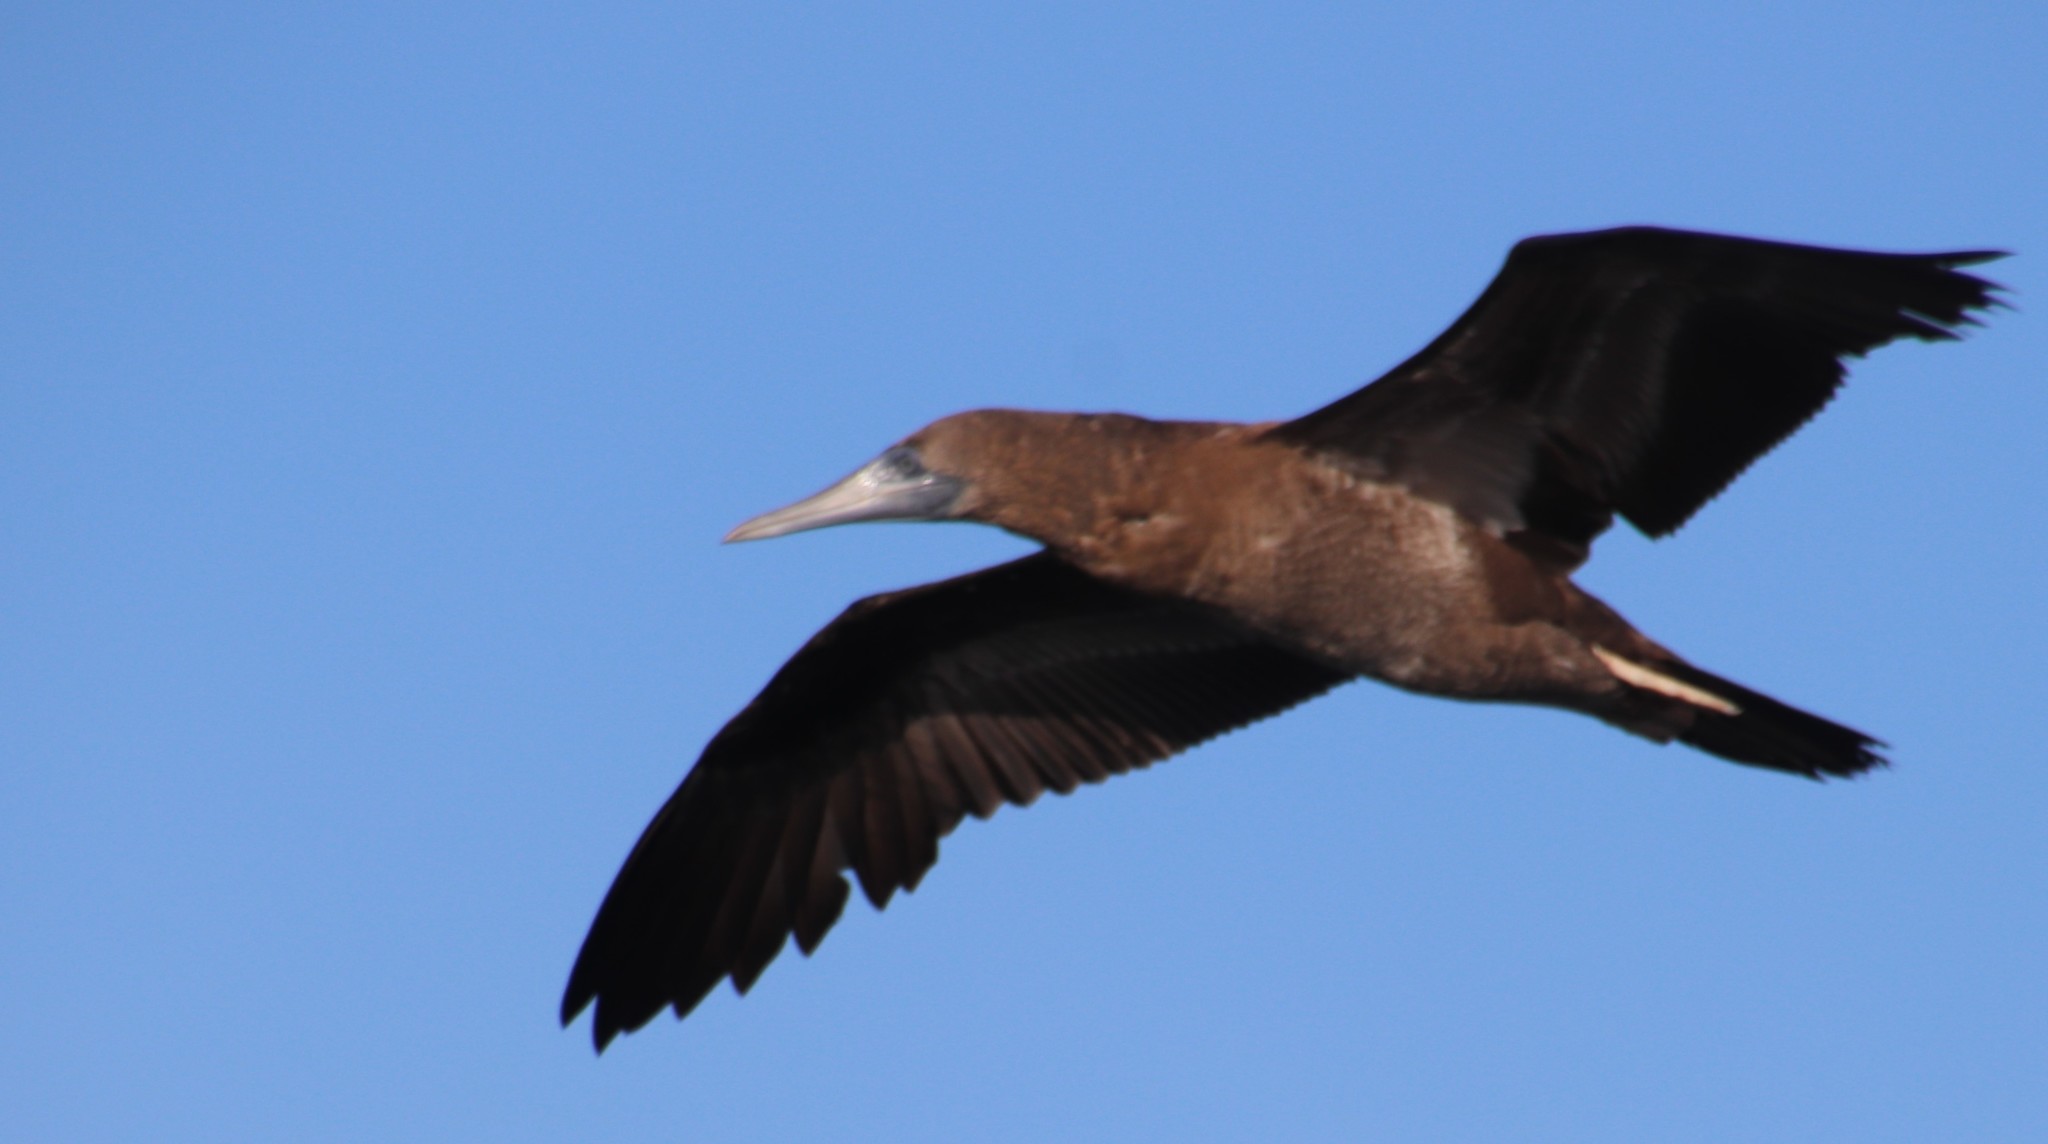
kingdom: Animalia
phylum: Chordata
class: Aves
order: Suliformes
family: Sulidae
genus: Sula
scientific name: Sula leucogaster
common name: Brown booby
